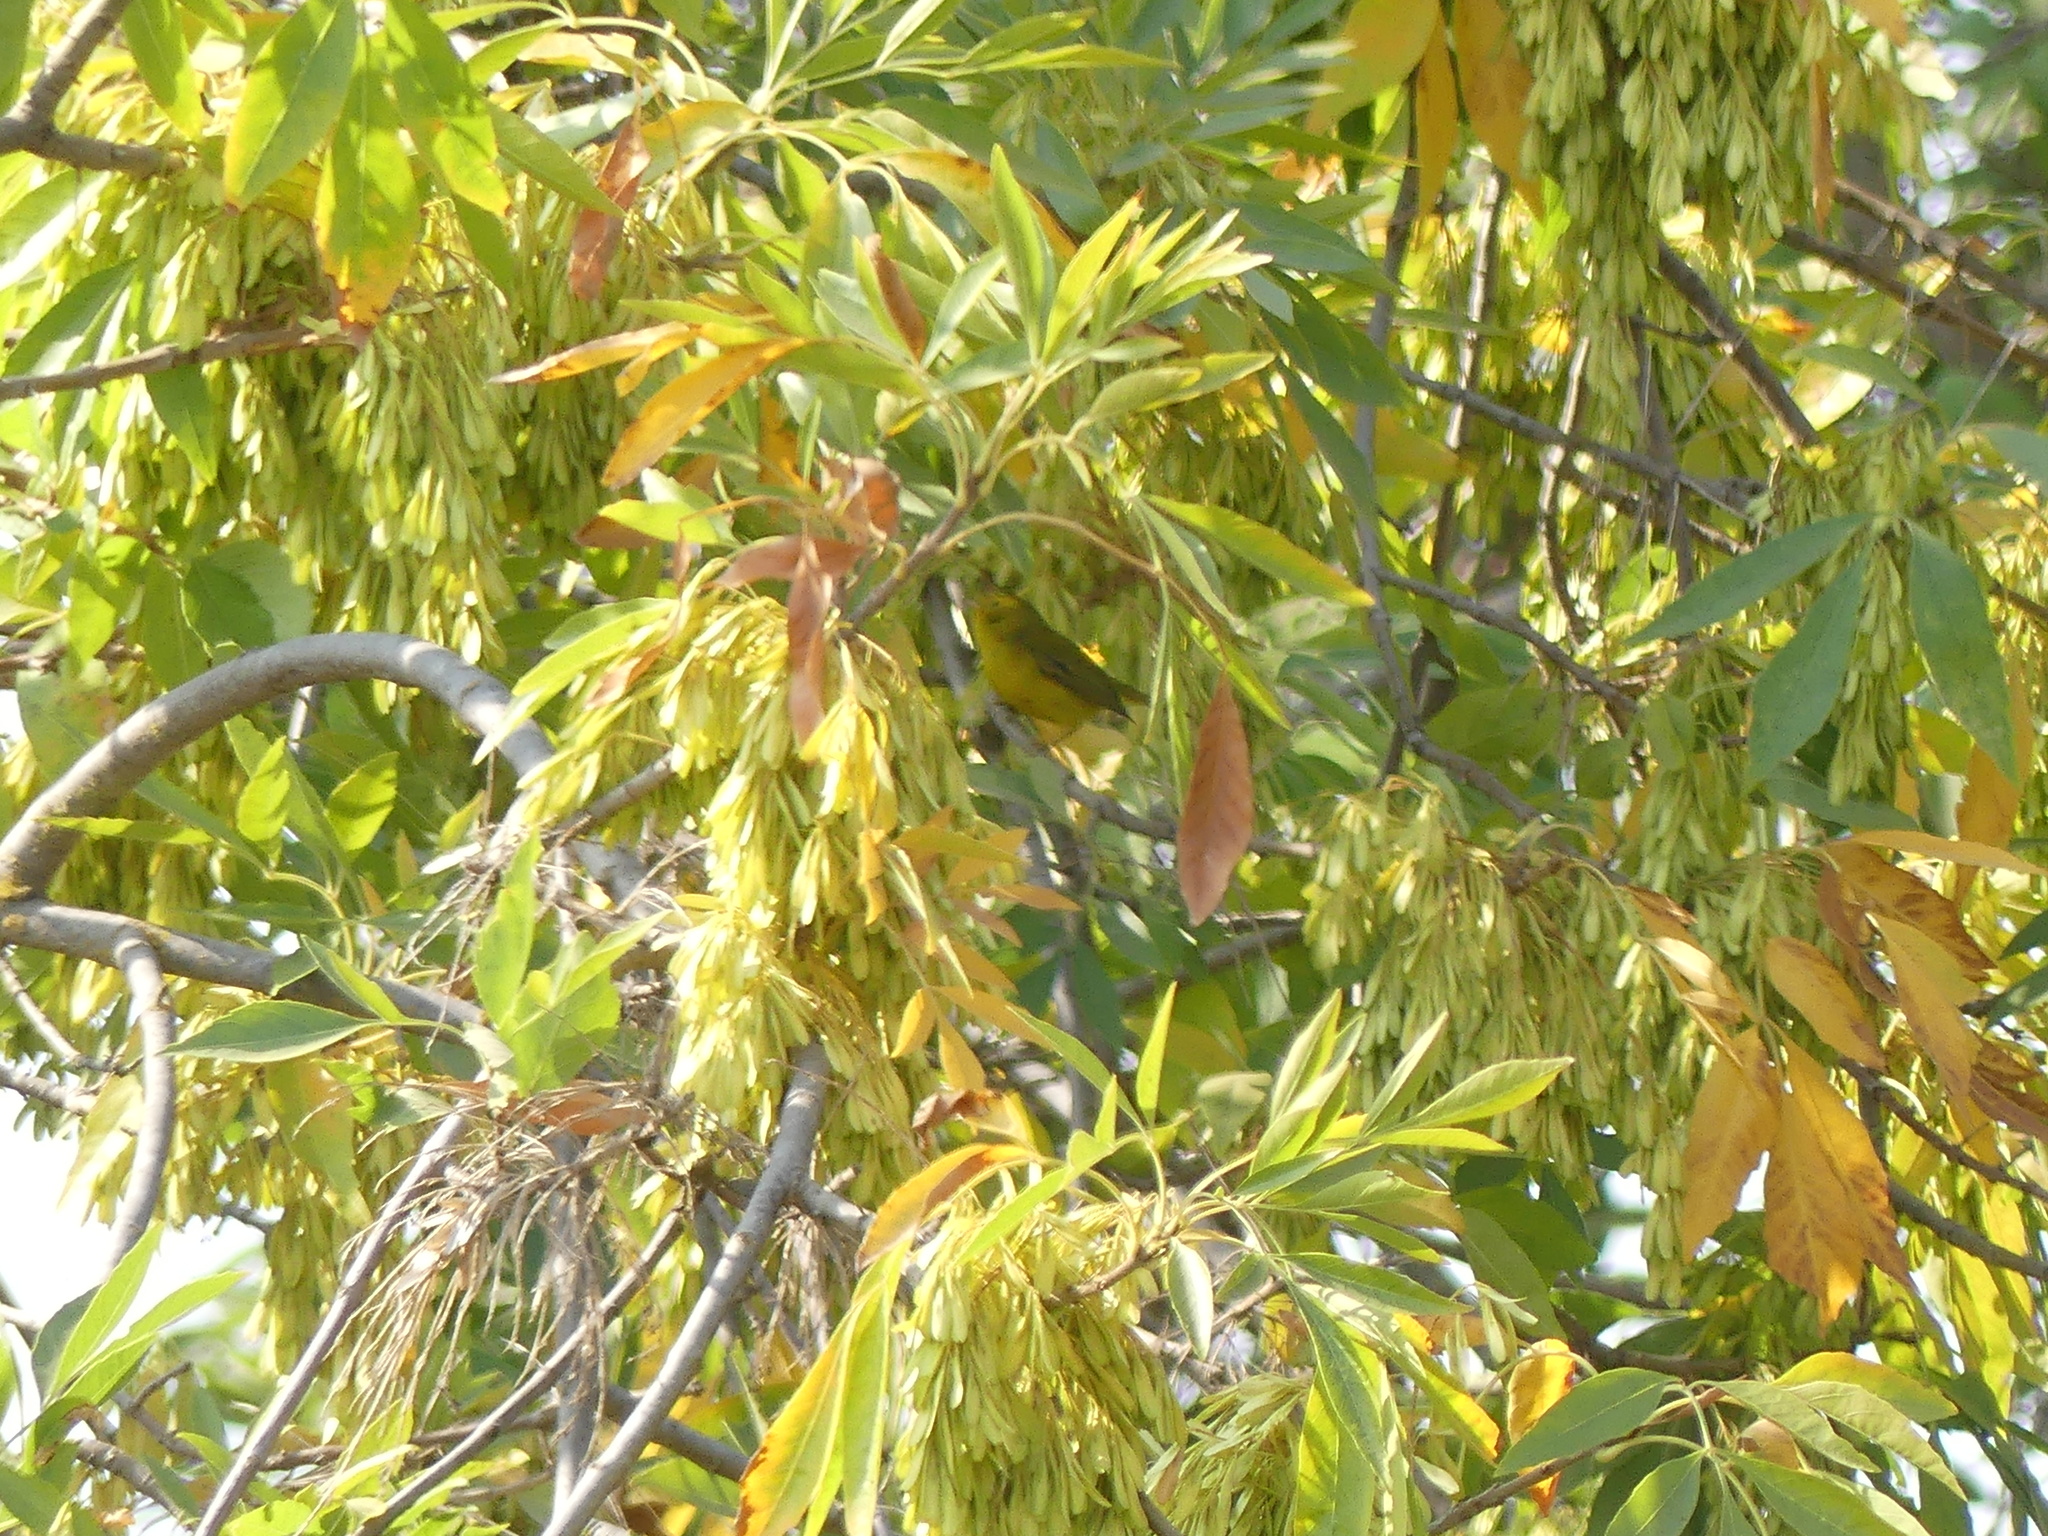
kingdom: Animalia
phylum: Chordata
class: Aves
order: Passeriformes
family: Parulidae
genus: Cardellina
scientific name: Cardellina pusilla
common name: Wilson's warbler
